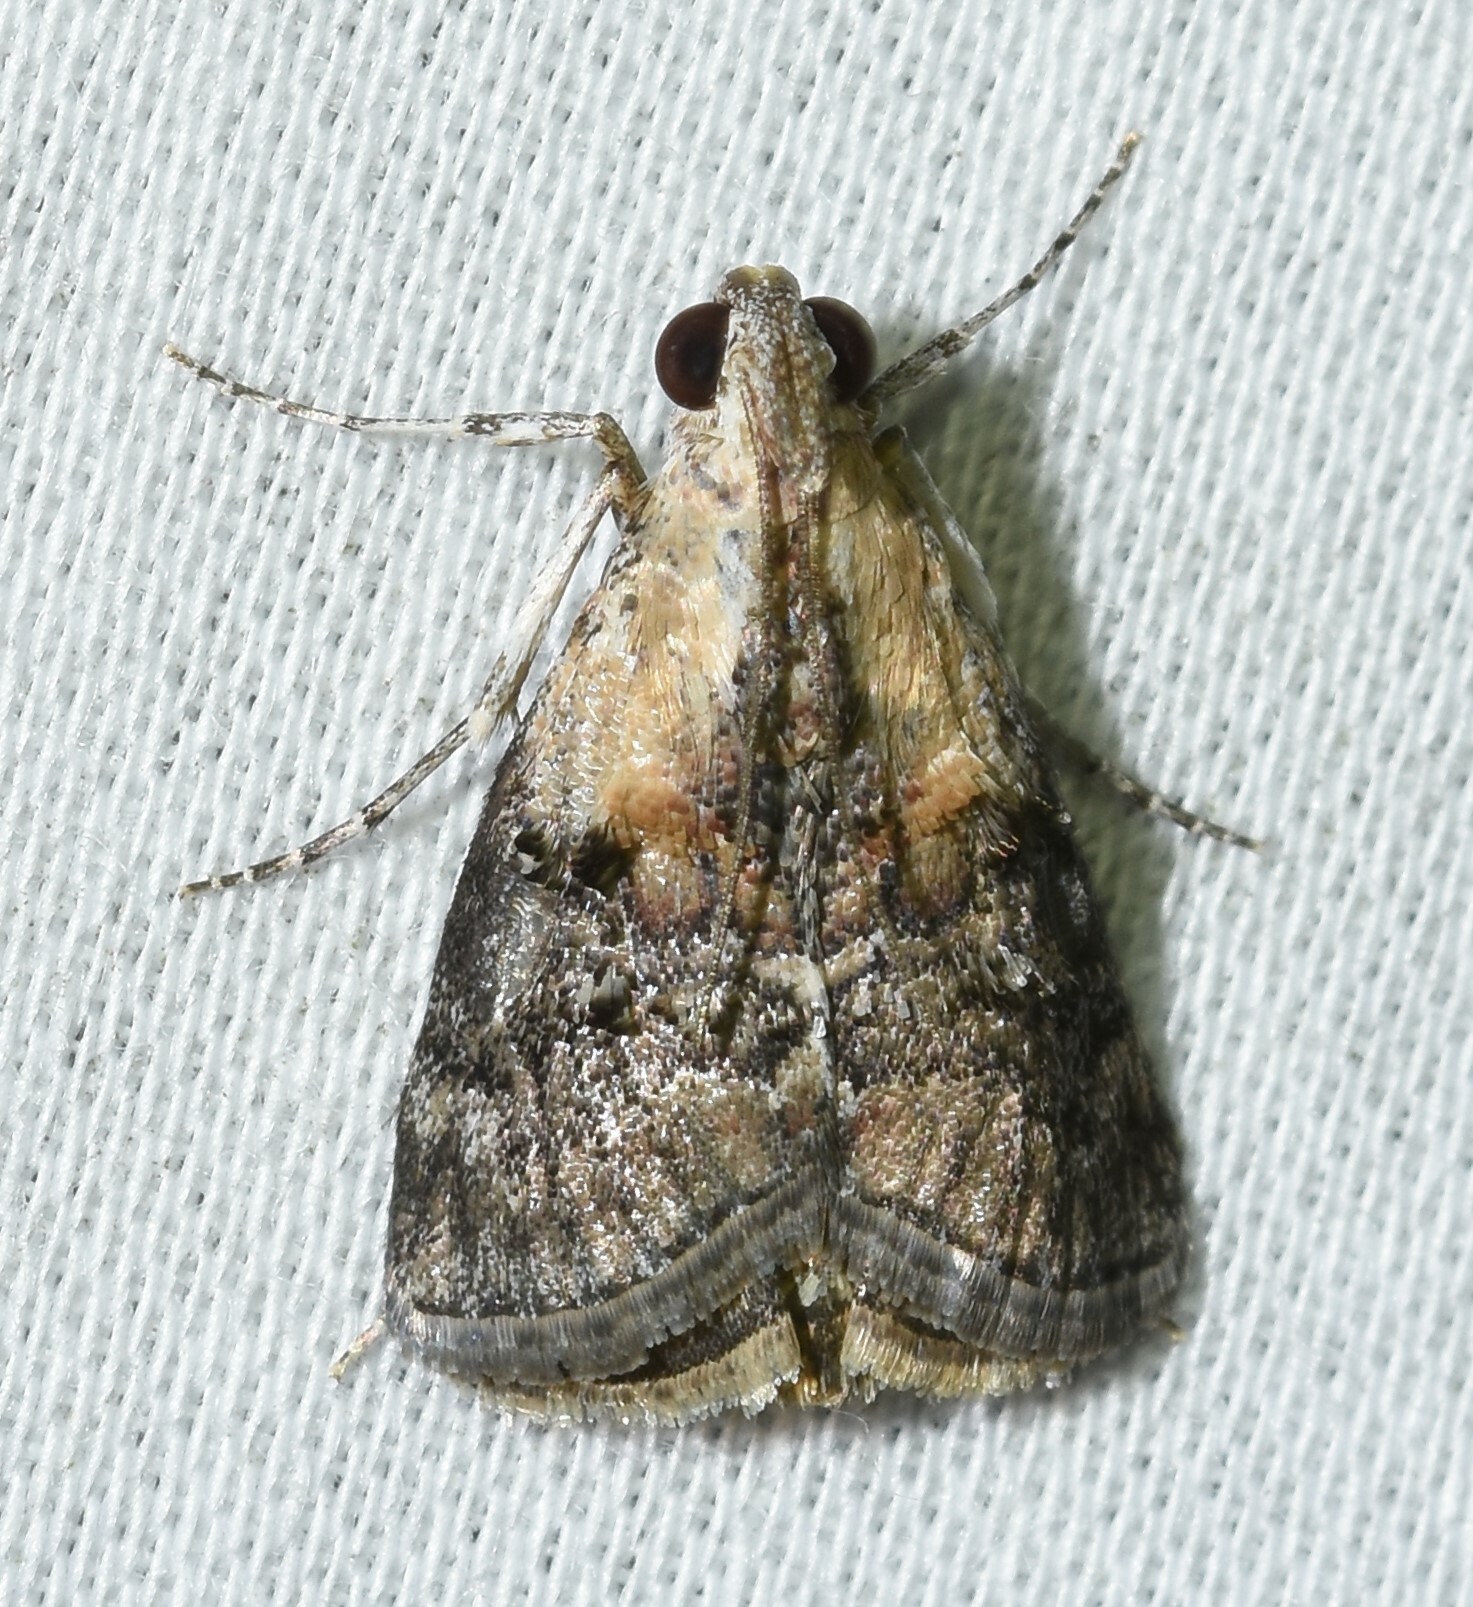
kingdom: Animalia
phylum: Arthropoda
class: Insecta
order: Lepidoptera
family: Pyralidae
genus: Pococera
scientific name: Pococera expandens
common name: Striped oak webworm moth
